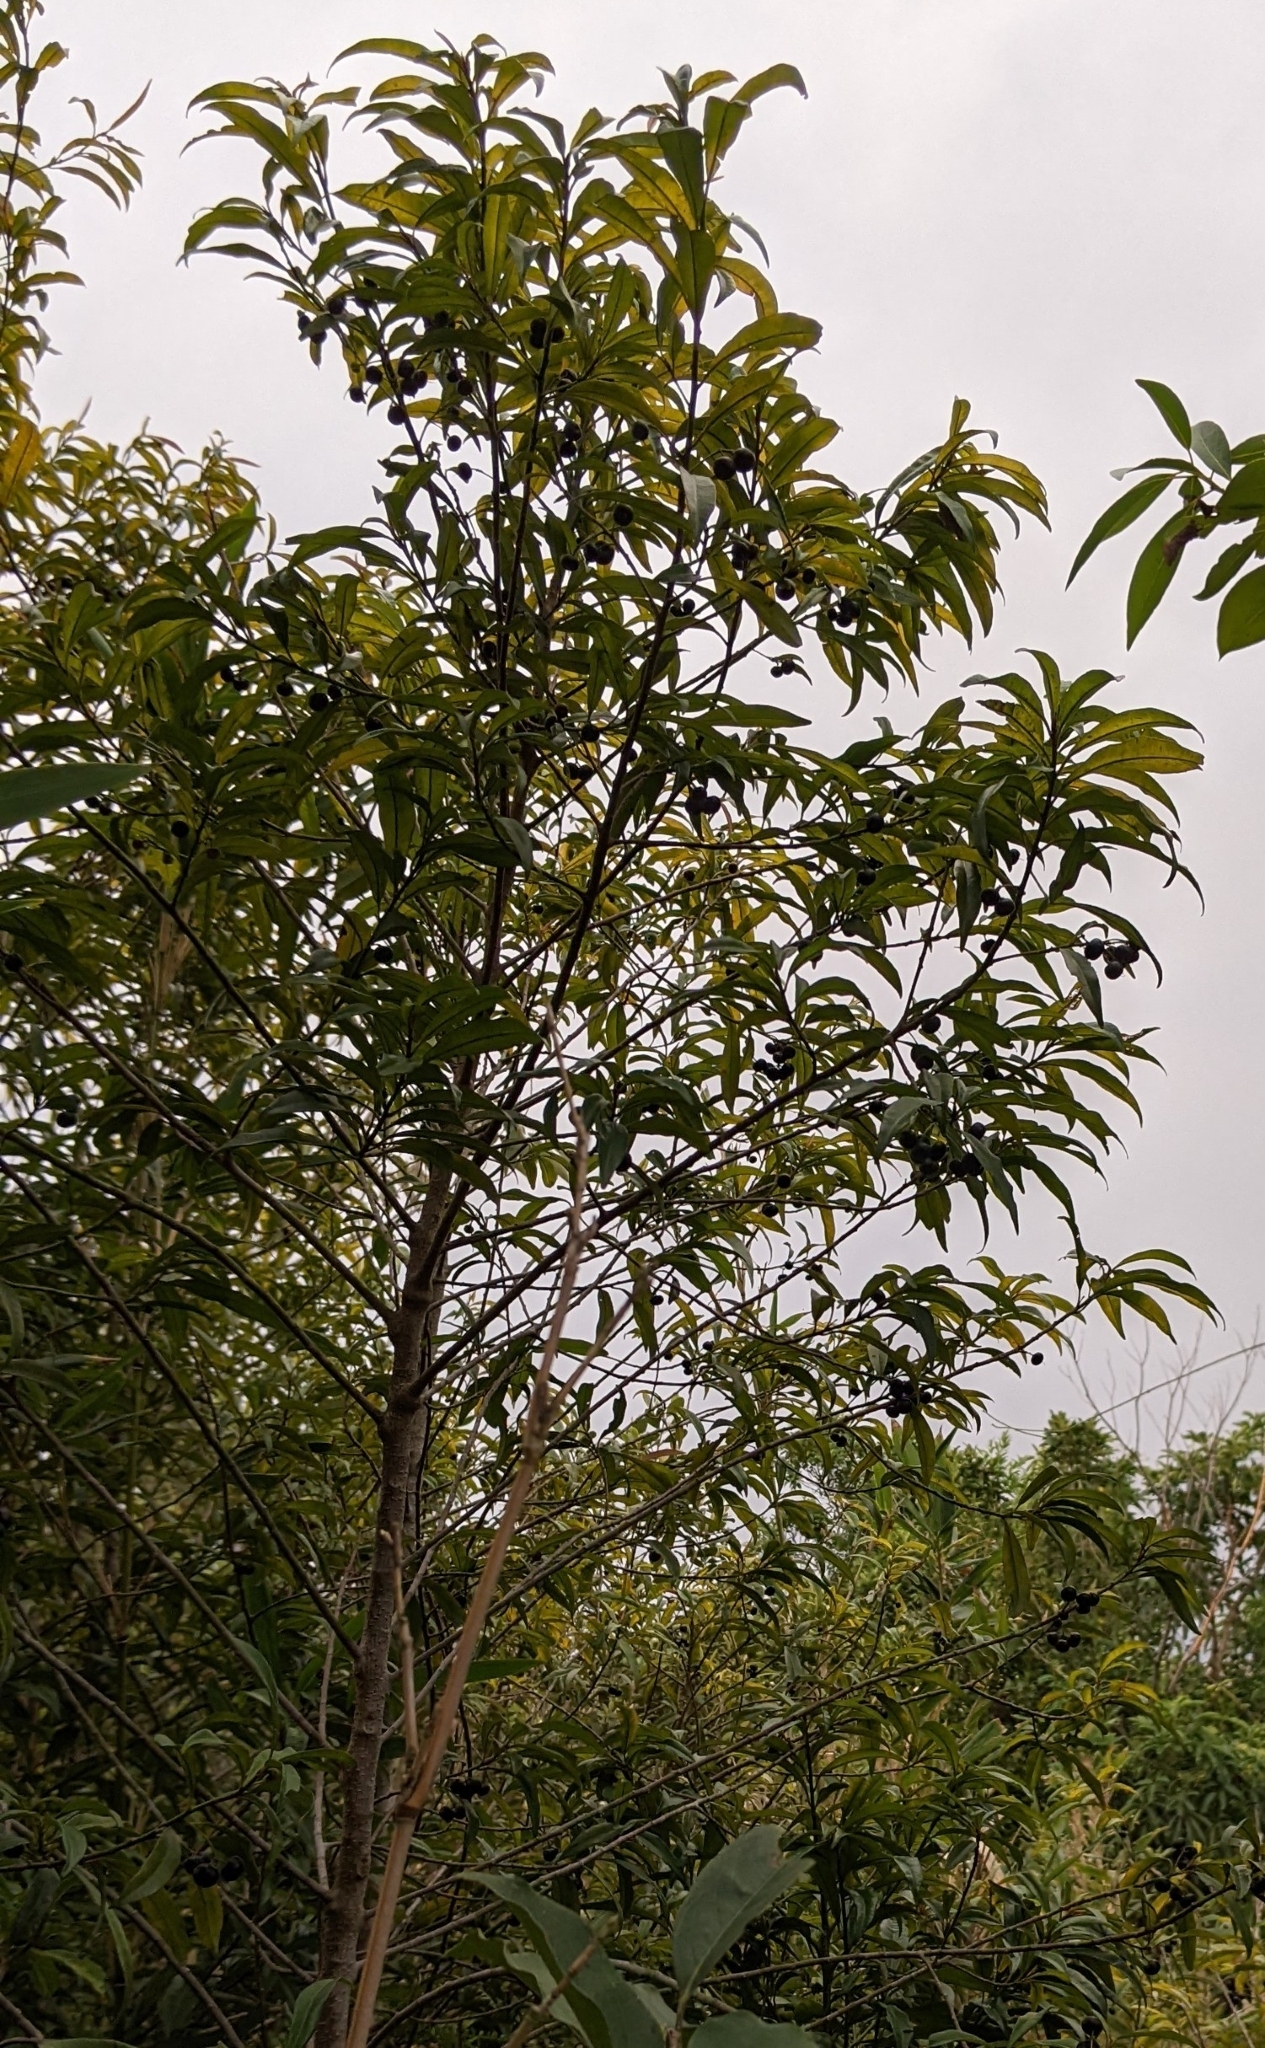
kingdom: Plantae
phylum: Tracheophyta
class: Magnoliopsida
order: Ericales
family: Primulaceae
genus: Ardisia
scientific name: Ardisia quinquegona
